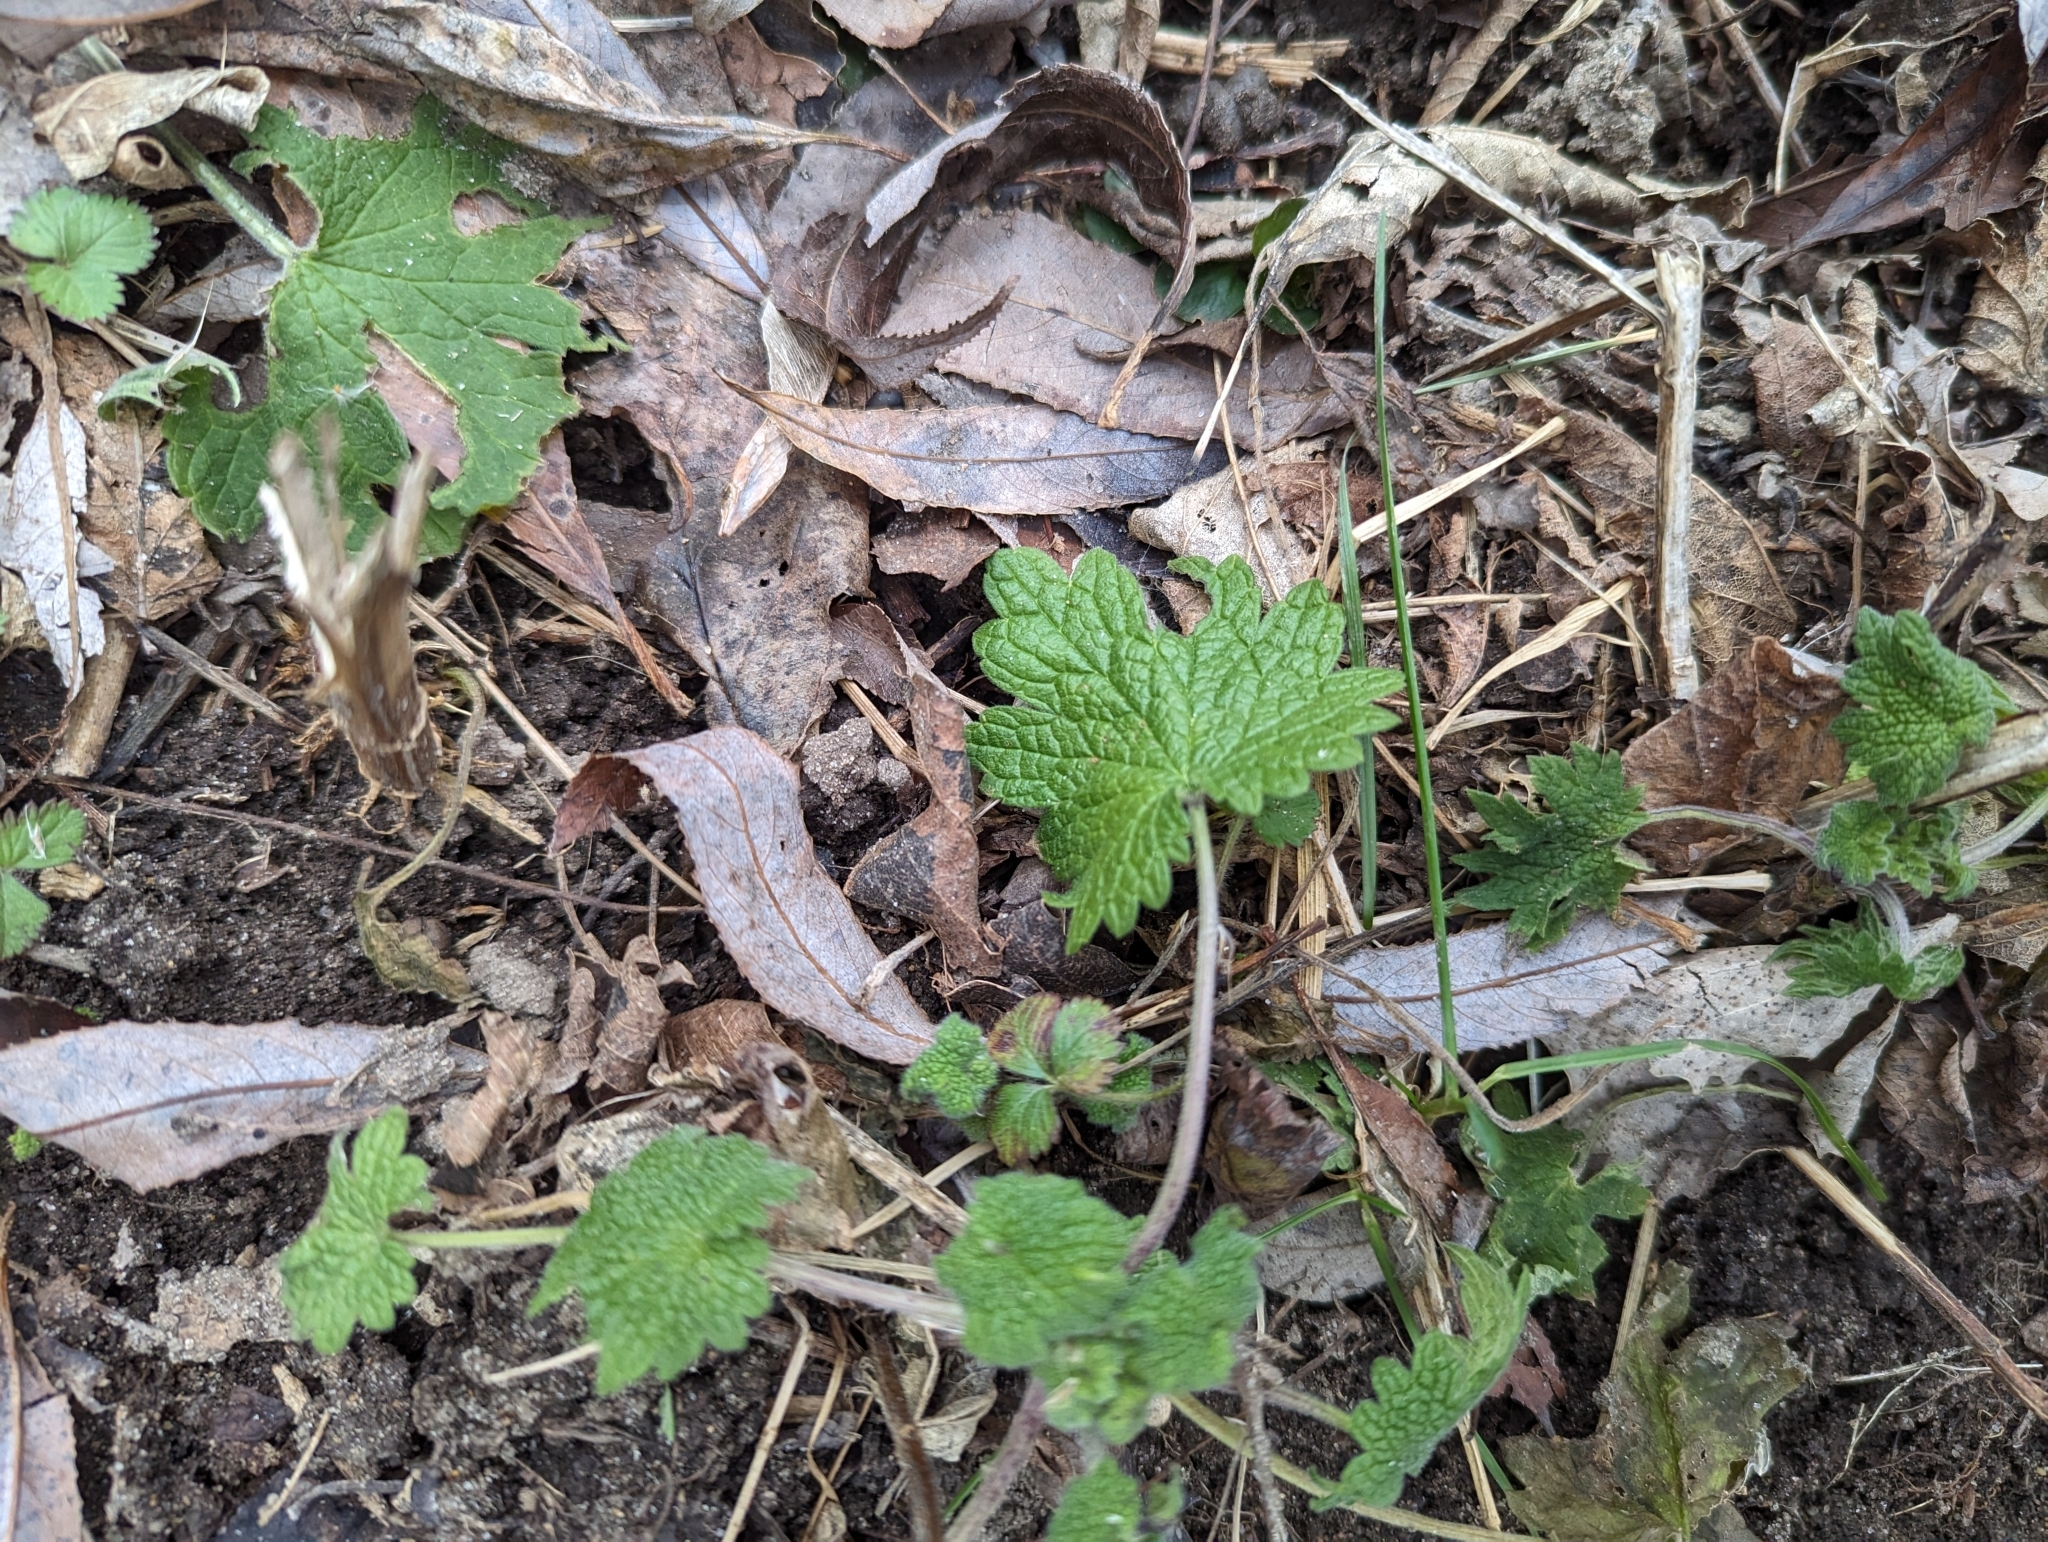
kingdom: Plantae
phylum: Tracheophyta
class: Magnoliopsida
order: Lamiales
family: Lamiaceae
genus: Leonurus
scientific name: Leonurus cardiaca
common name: Motherwort
